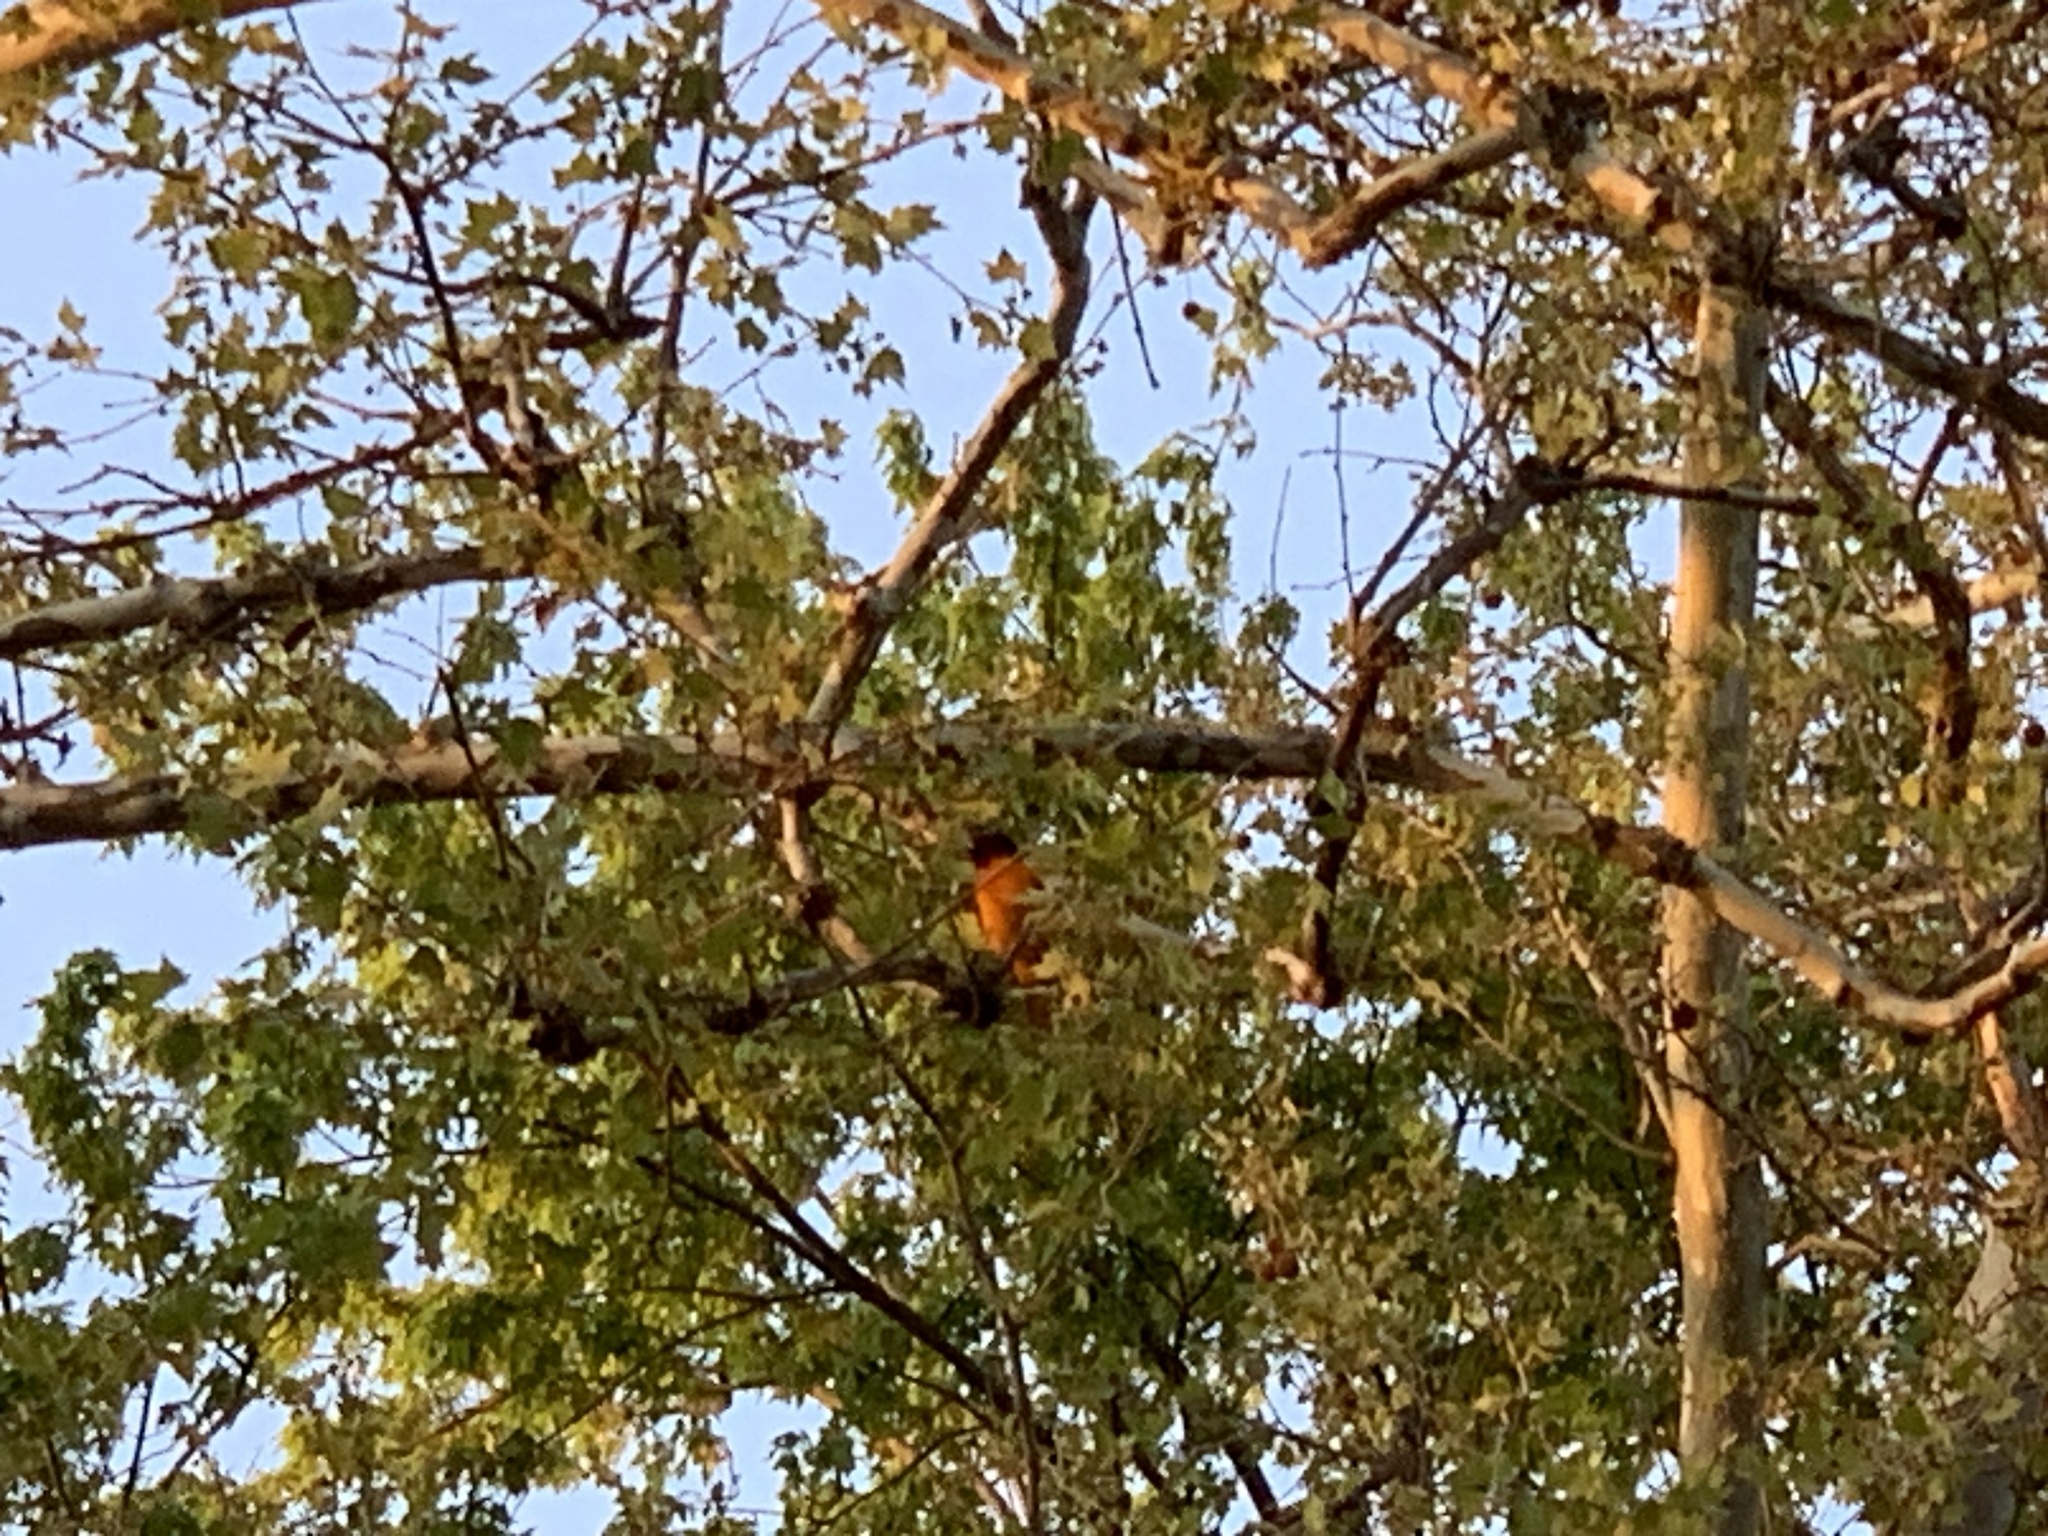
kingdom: Animalia
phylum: Chordata
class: Aves
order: Passeriformes
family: Icteridae
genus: Icterus
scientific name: Icterus galbula
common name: Baltimore oriole
